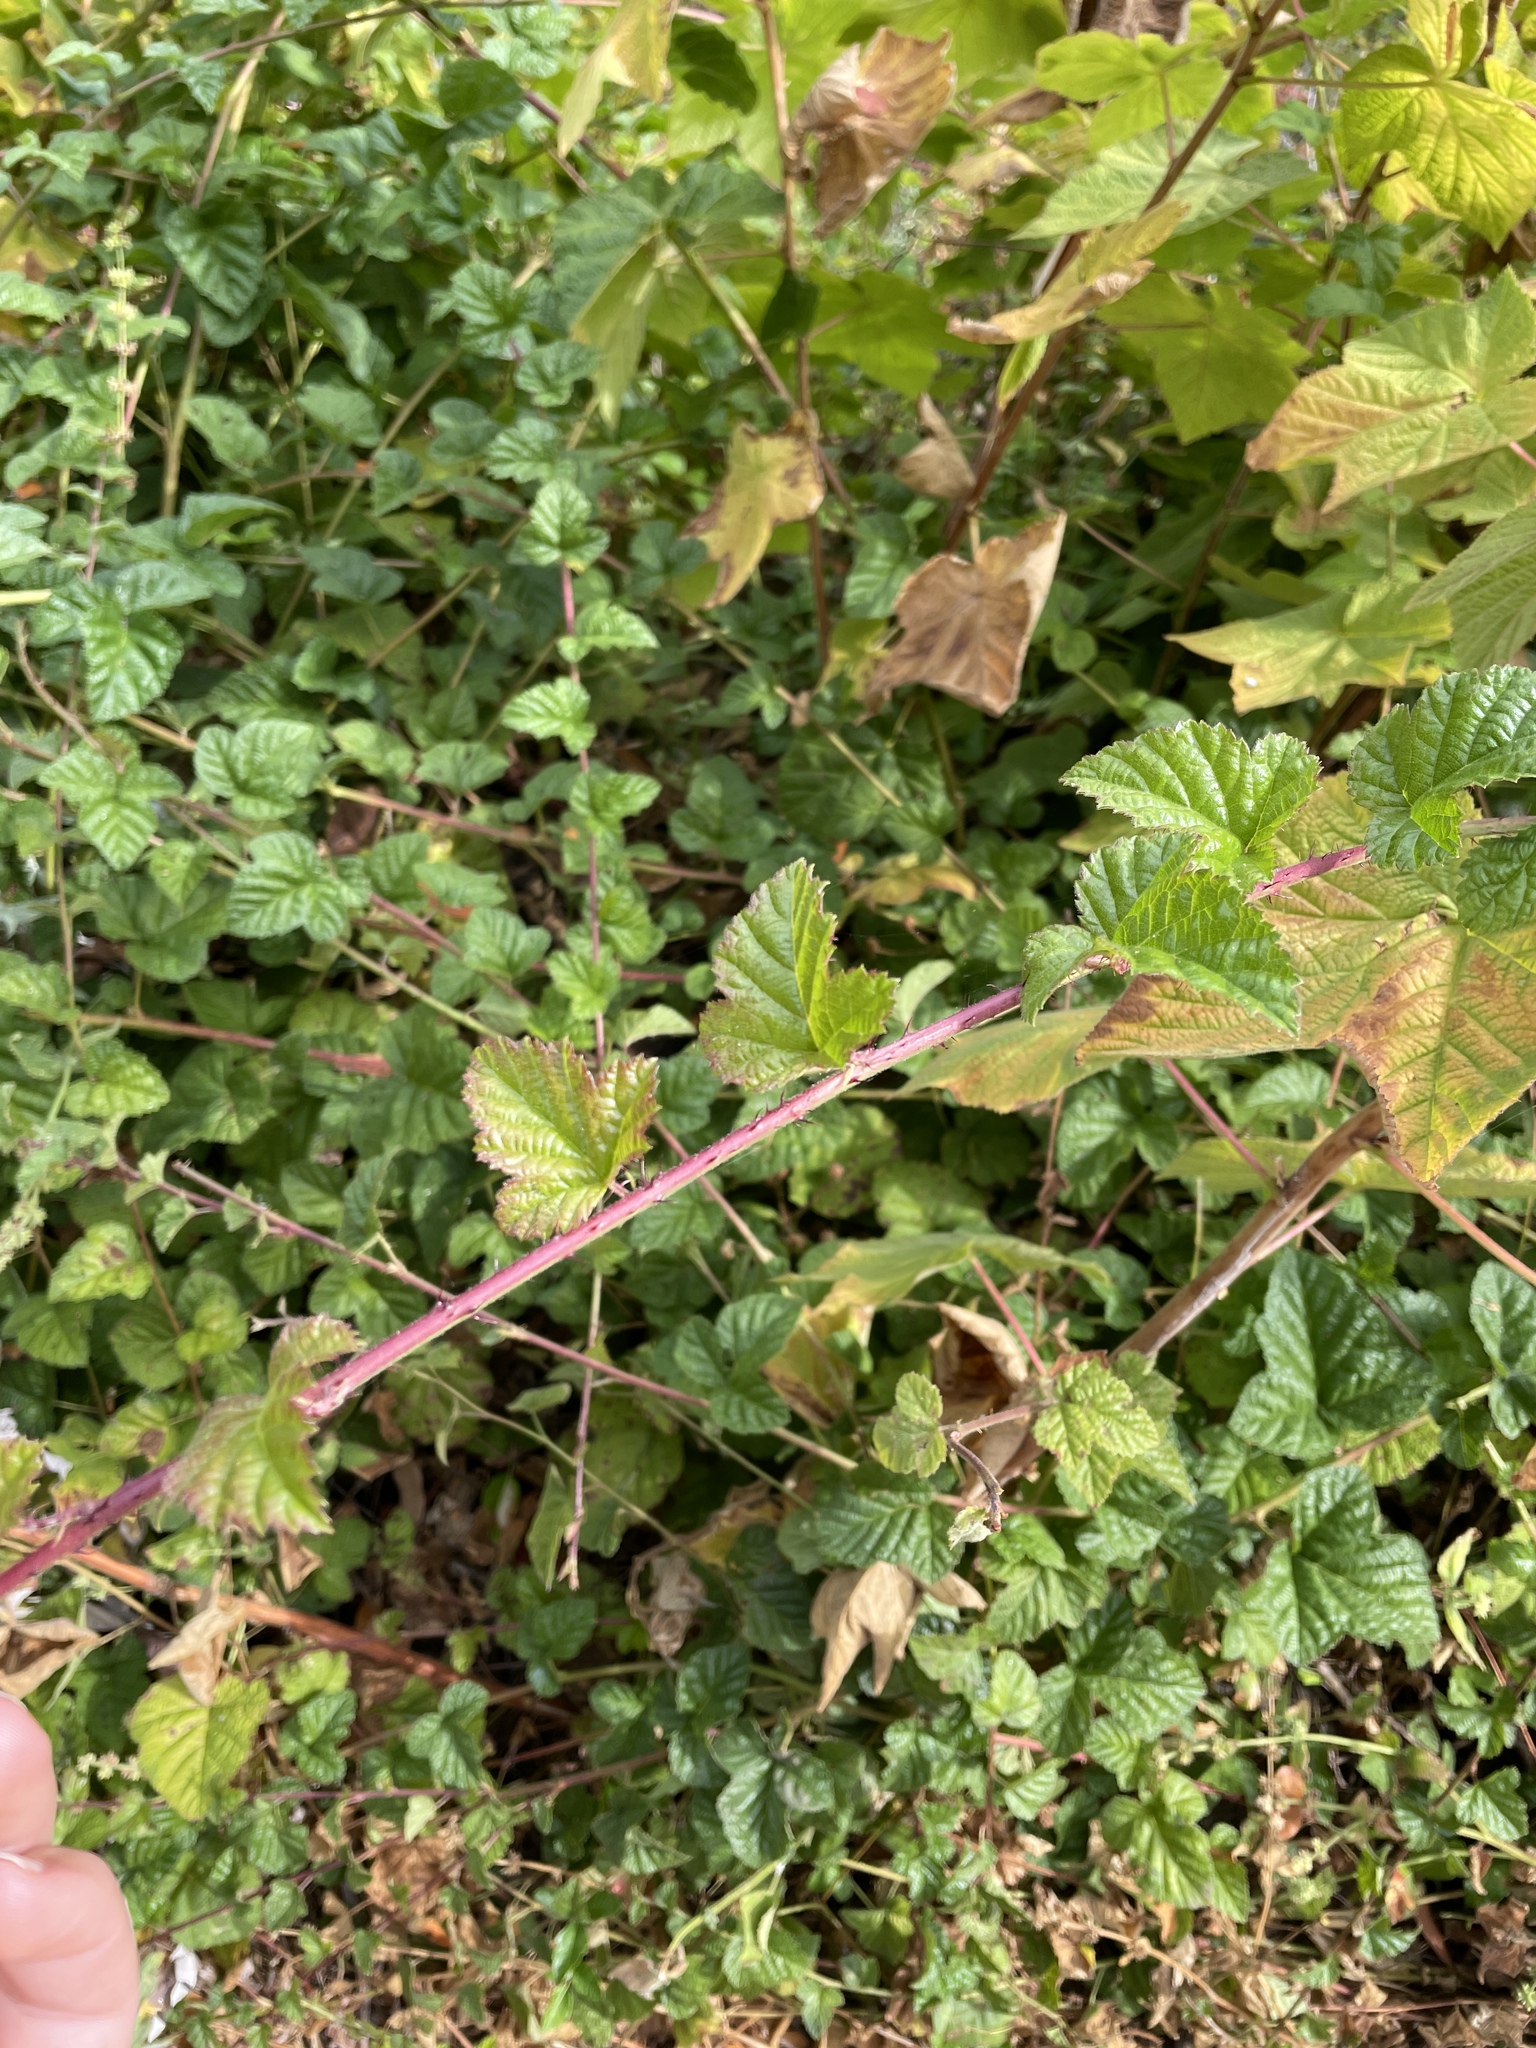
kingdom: Plantae
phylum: Tracheophyta
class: Magnoliopsida
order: Rosales
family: Rosaceae
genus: Rubus
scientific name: Rubus ursinus
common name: Pacific blackberry
